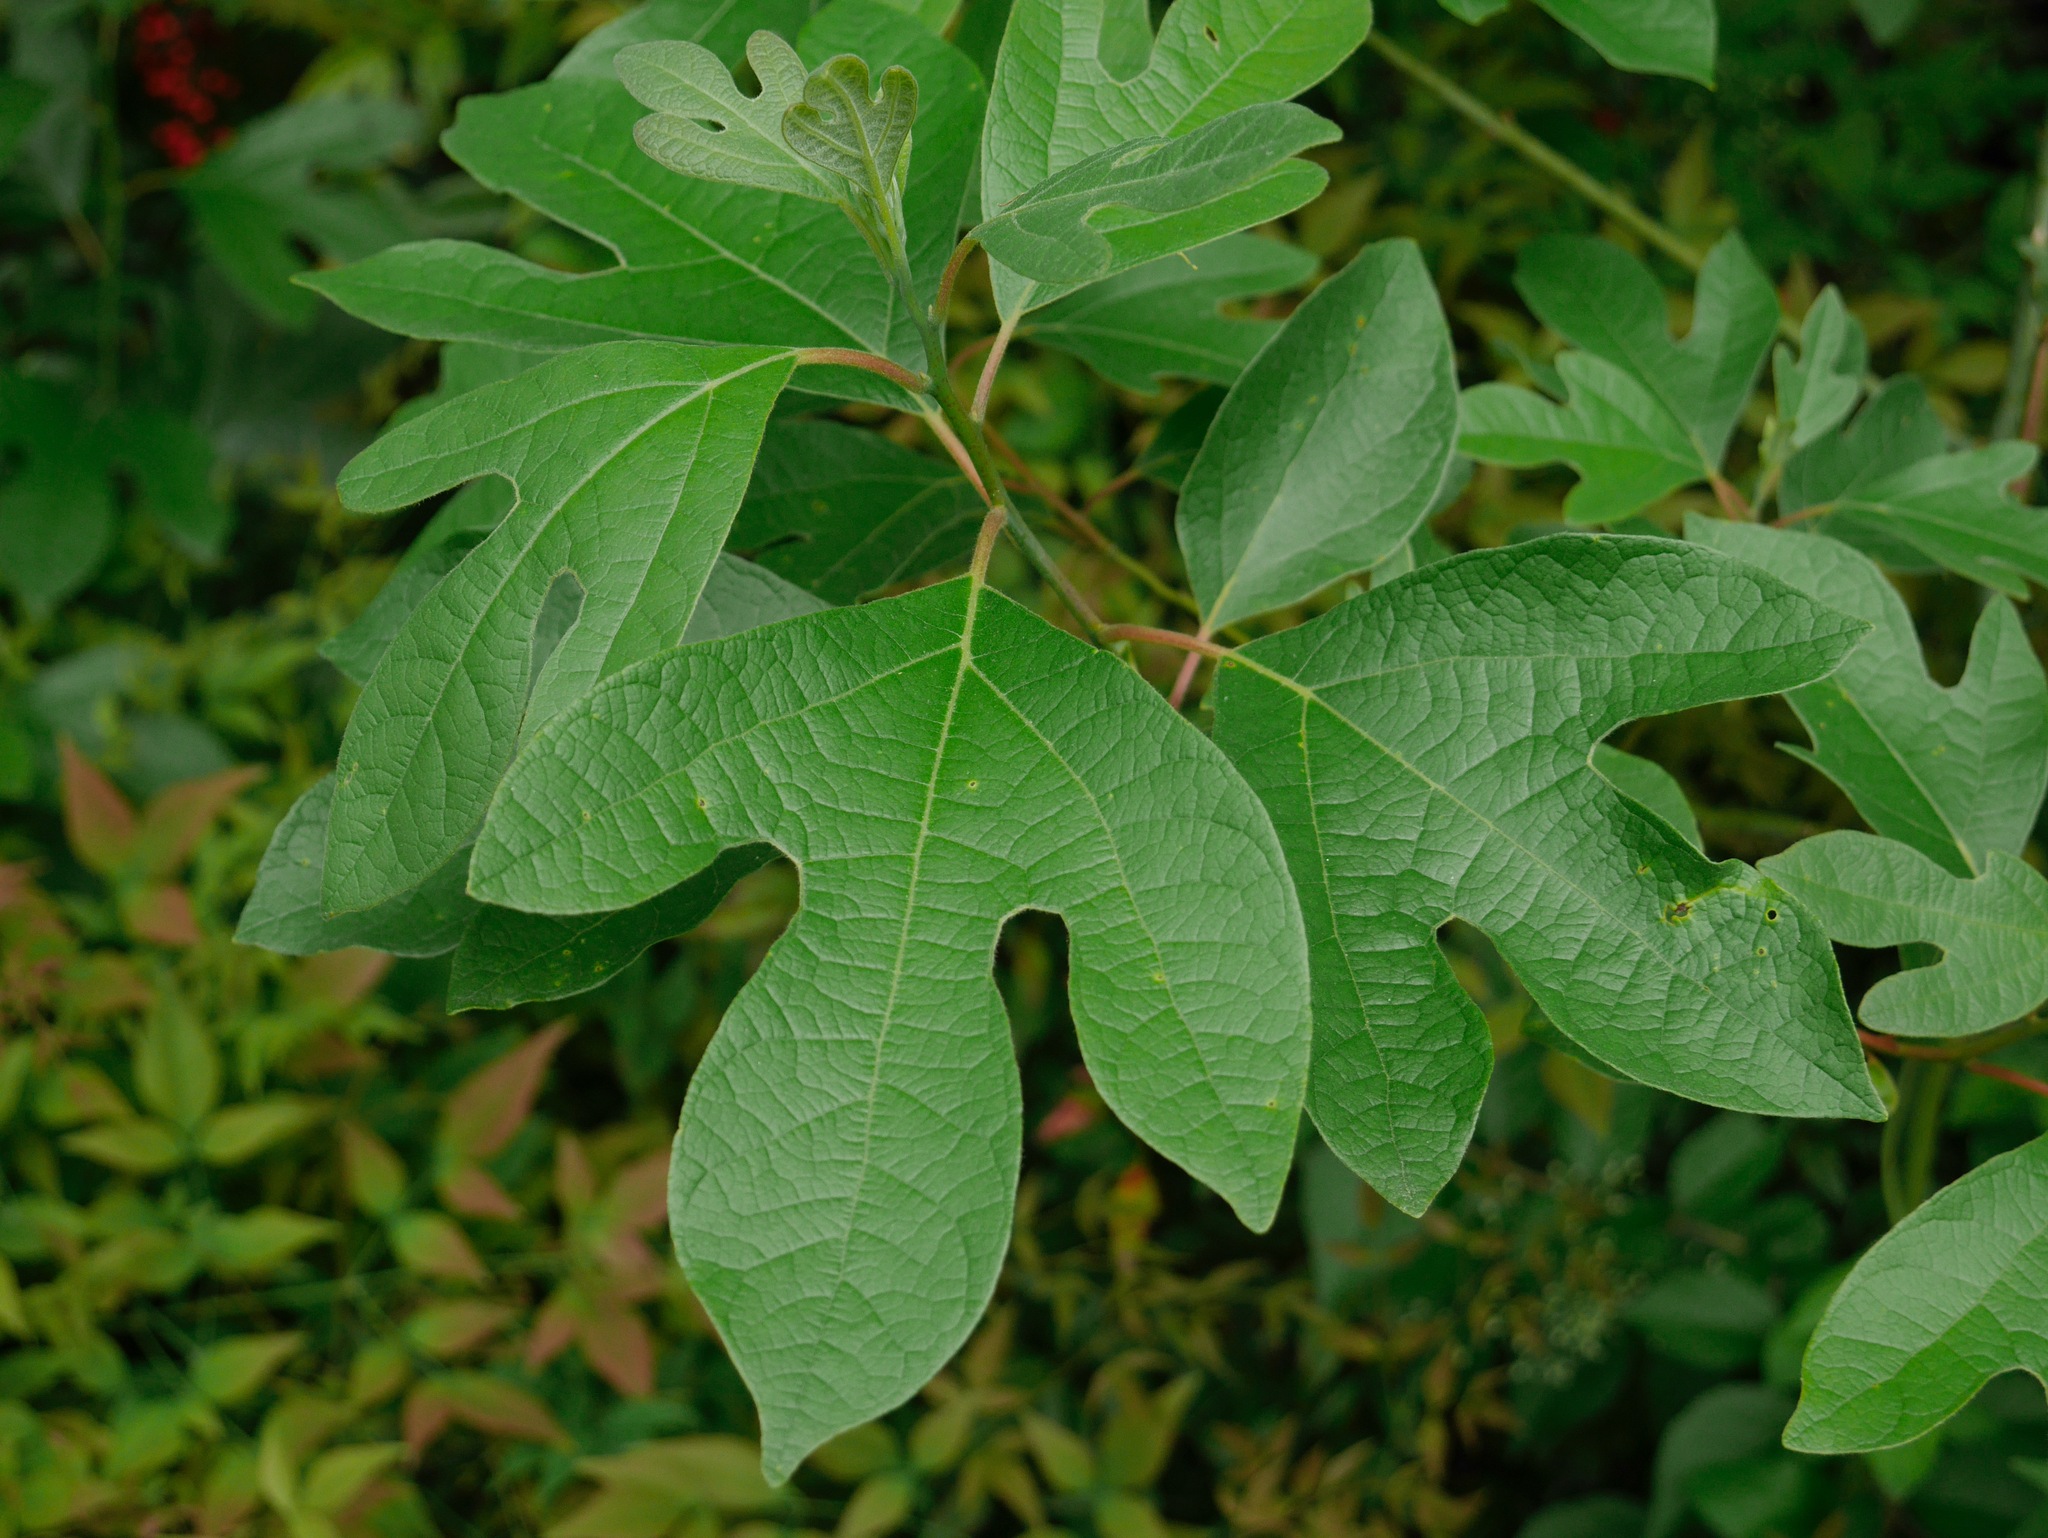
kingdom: Plantae
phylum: Tracheophyta
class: Magnoliopsida
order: Laurales
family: Lauraceae
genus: Sassafras
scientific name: Sassafras albidum
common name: Sassafras
